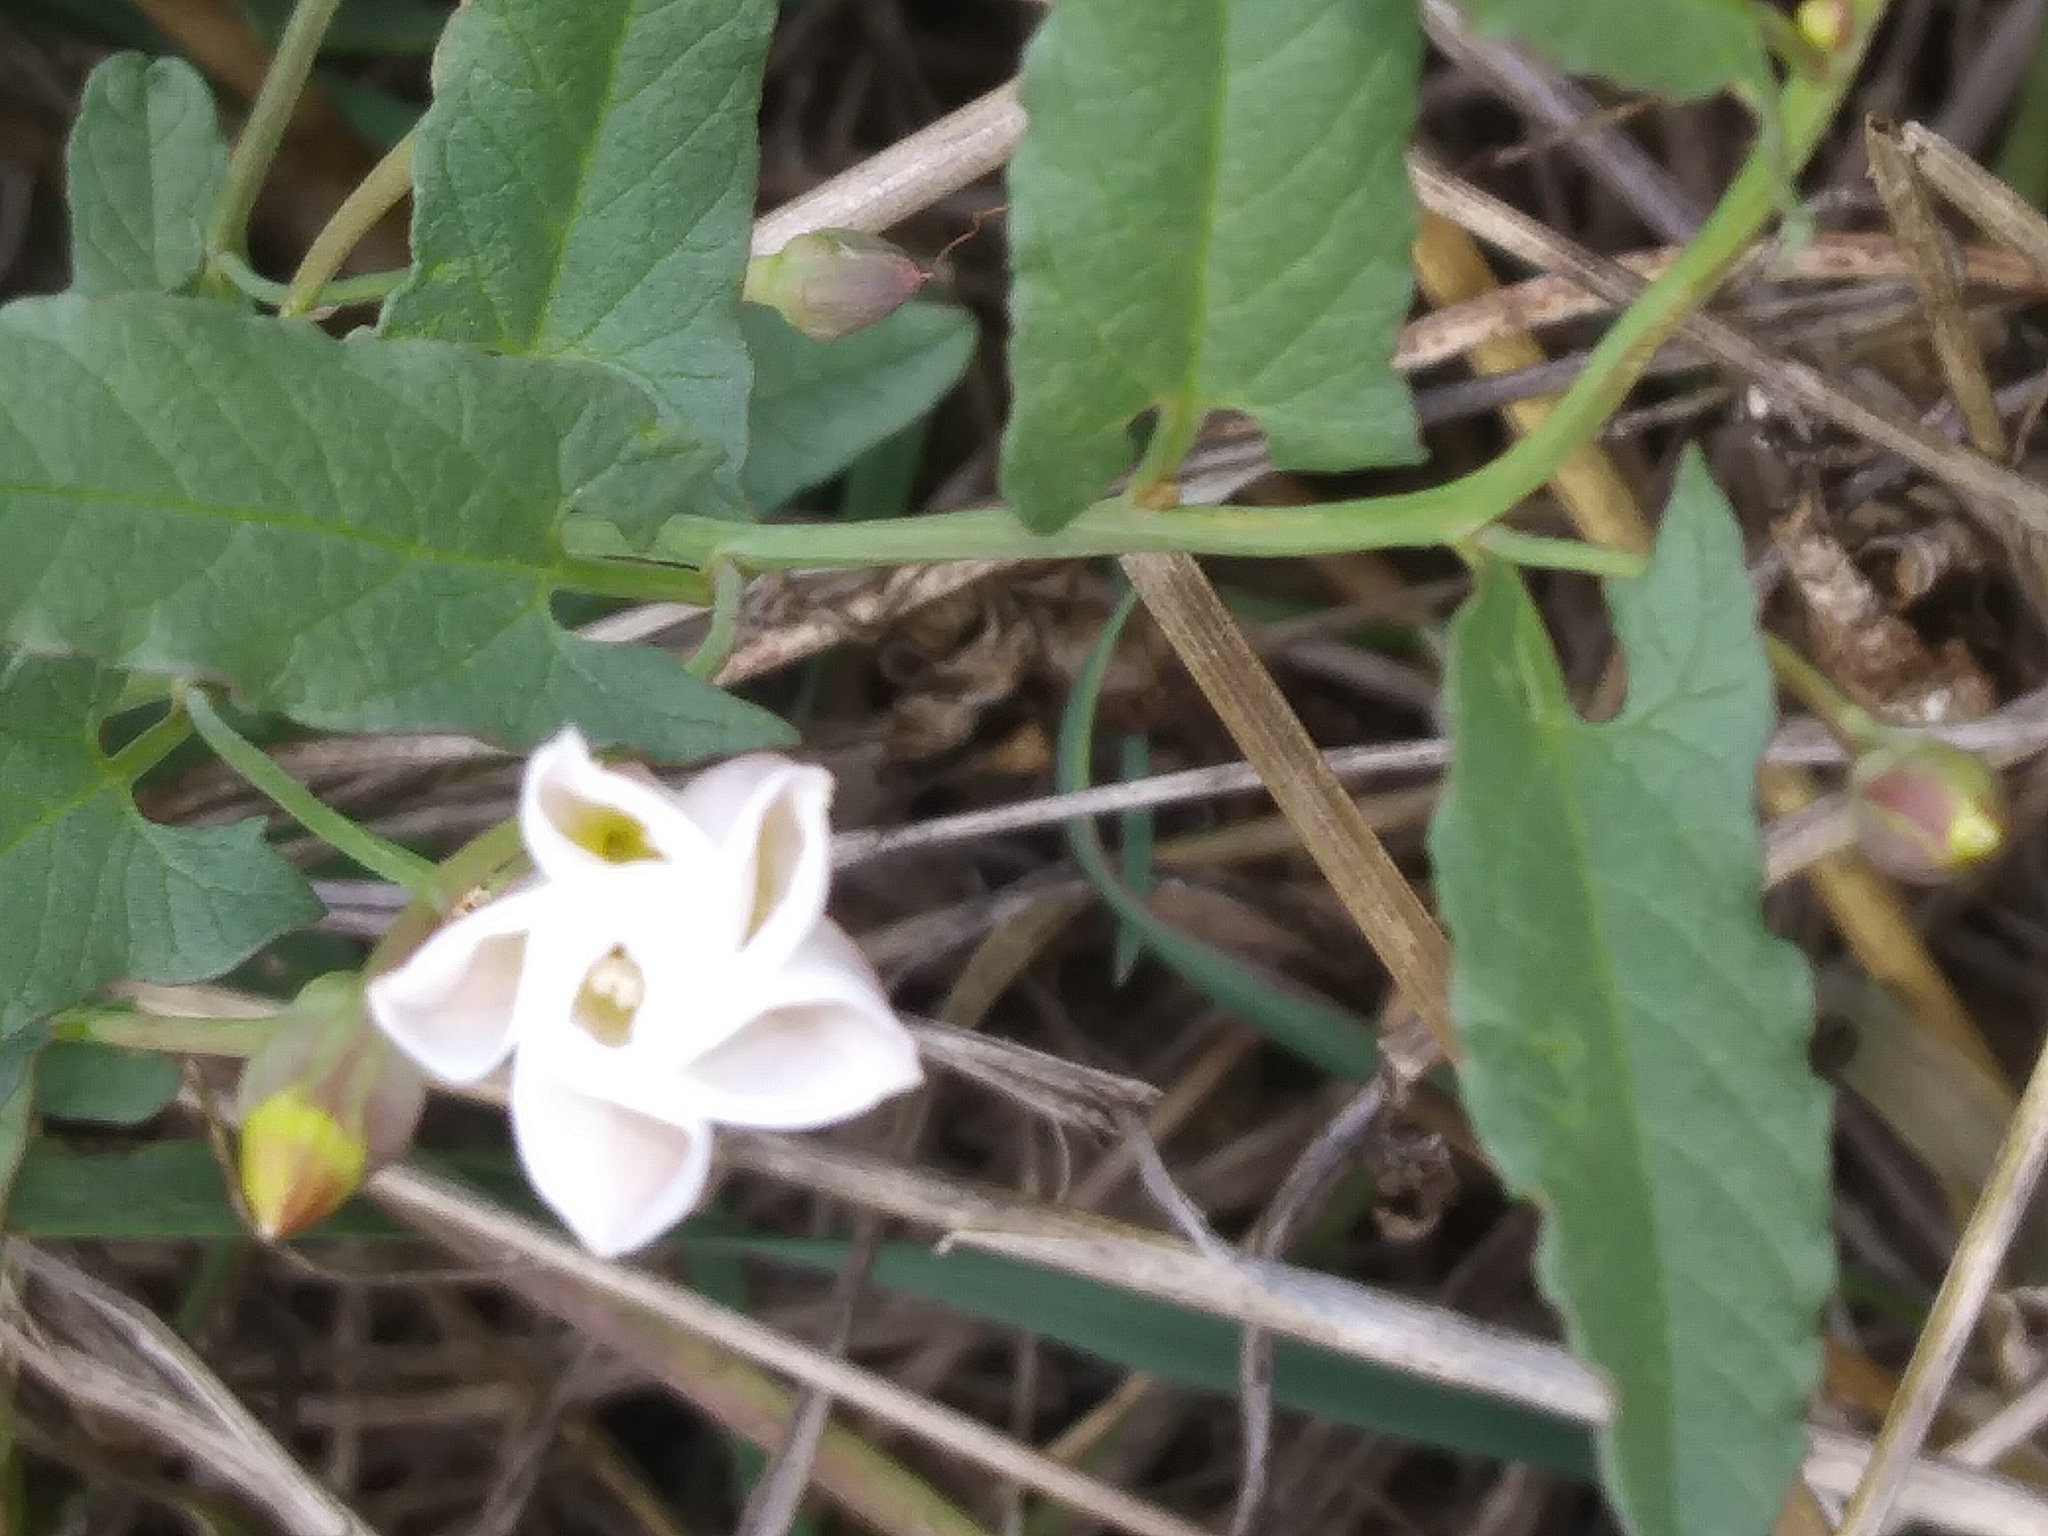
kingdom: Plantae
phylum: Tracheophyta
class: Magnoliopsida
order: Solanales
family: Convolvulaceae
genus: Convolvulus
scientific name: Convolvulus arvensis
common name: Field bindweed
